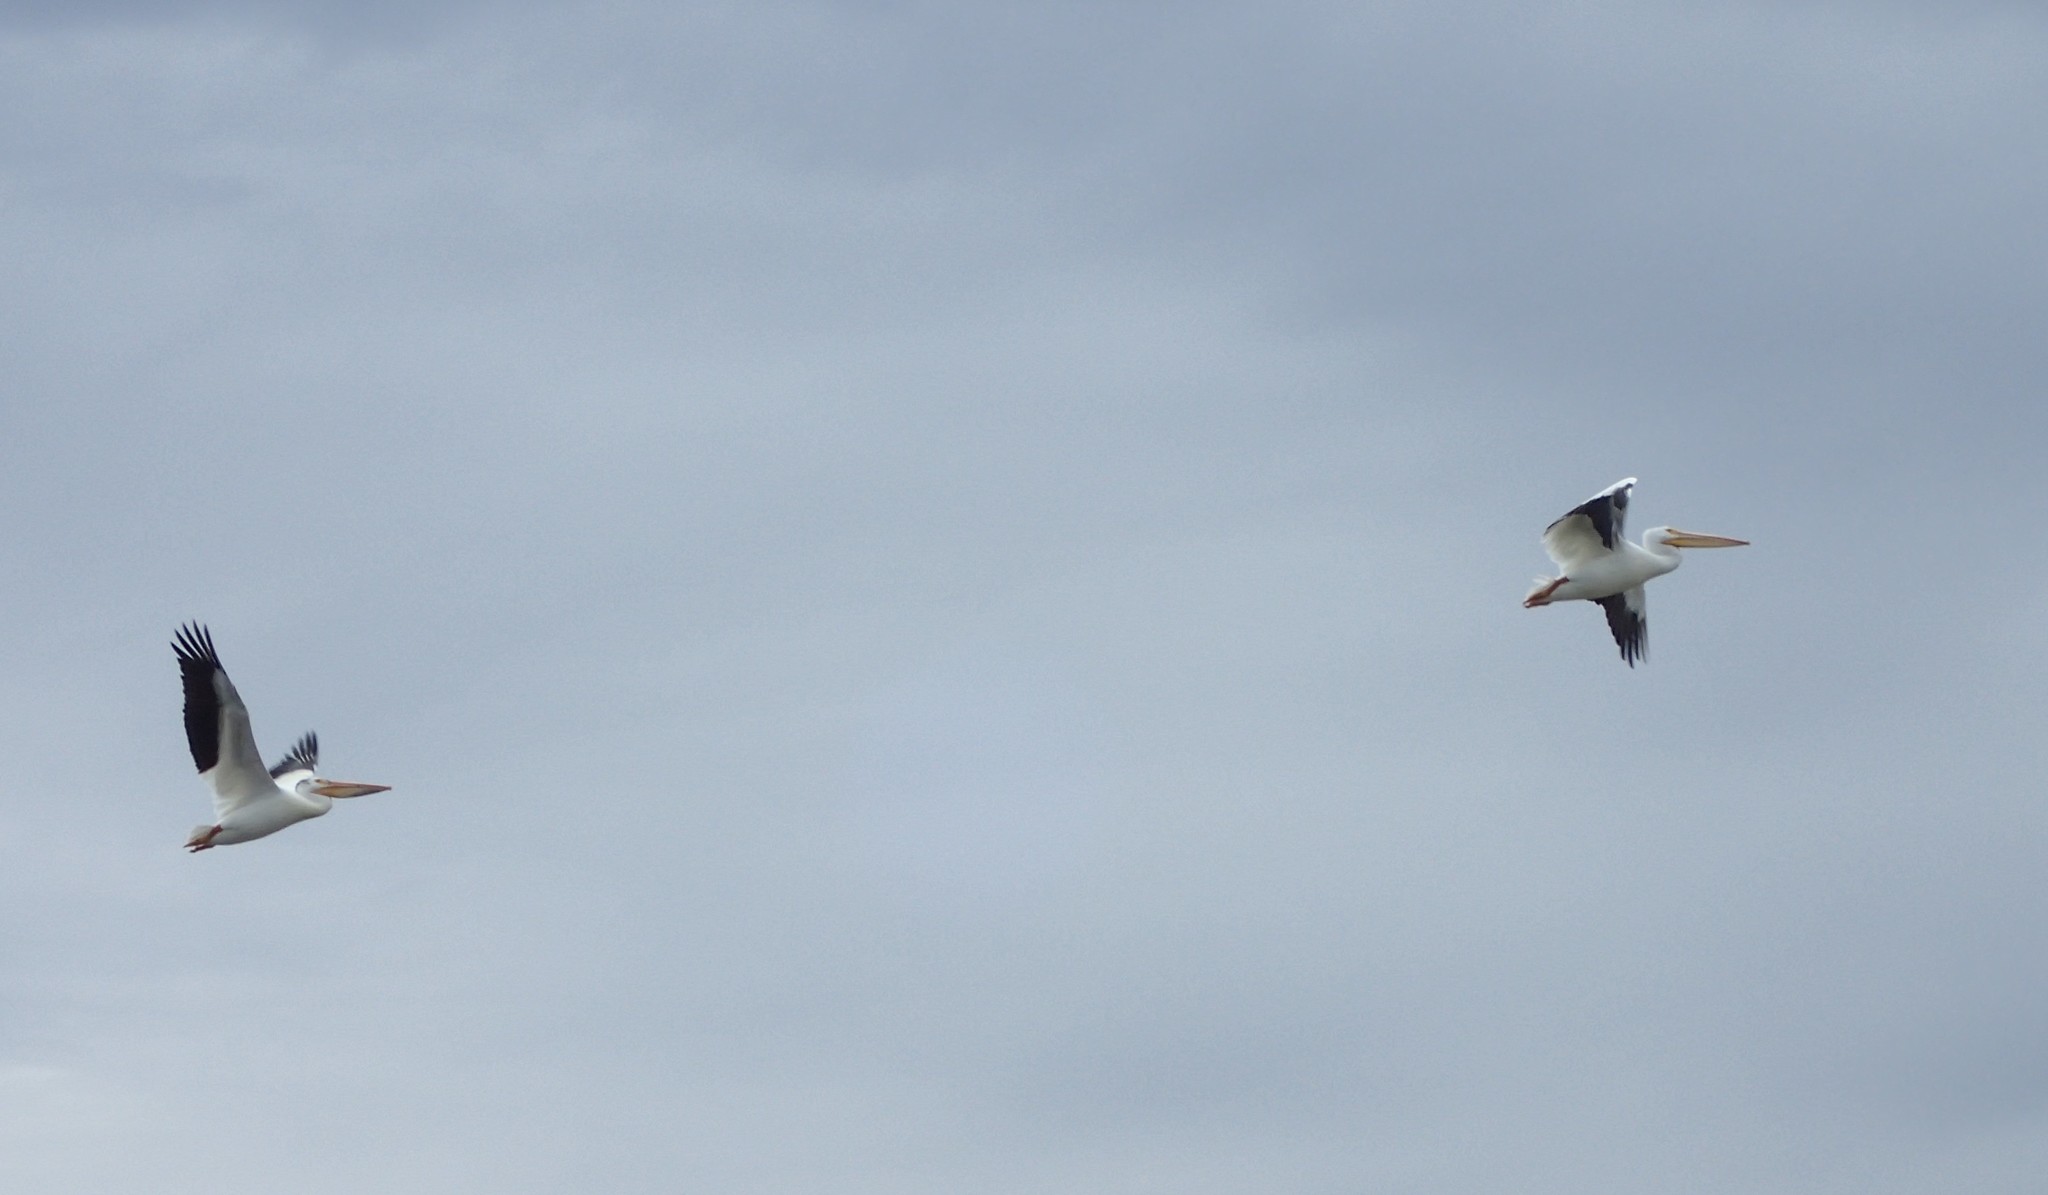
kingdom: Animalia
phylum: Chordata
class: Aves
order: Pelecaniformes
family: Pelecanidae
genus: Pelecanus
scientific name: Pelecanus erythrorhynchos
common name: American white pelican
